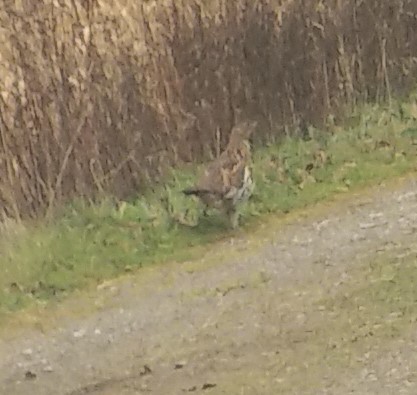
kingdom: Animalia
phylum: Chordata
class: Aves
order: Galliformes
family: Phasianidae
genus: Bonasa
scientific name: Bonasa umbellus
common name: Ruffed grouse
